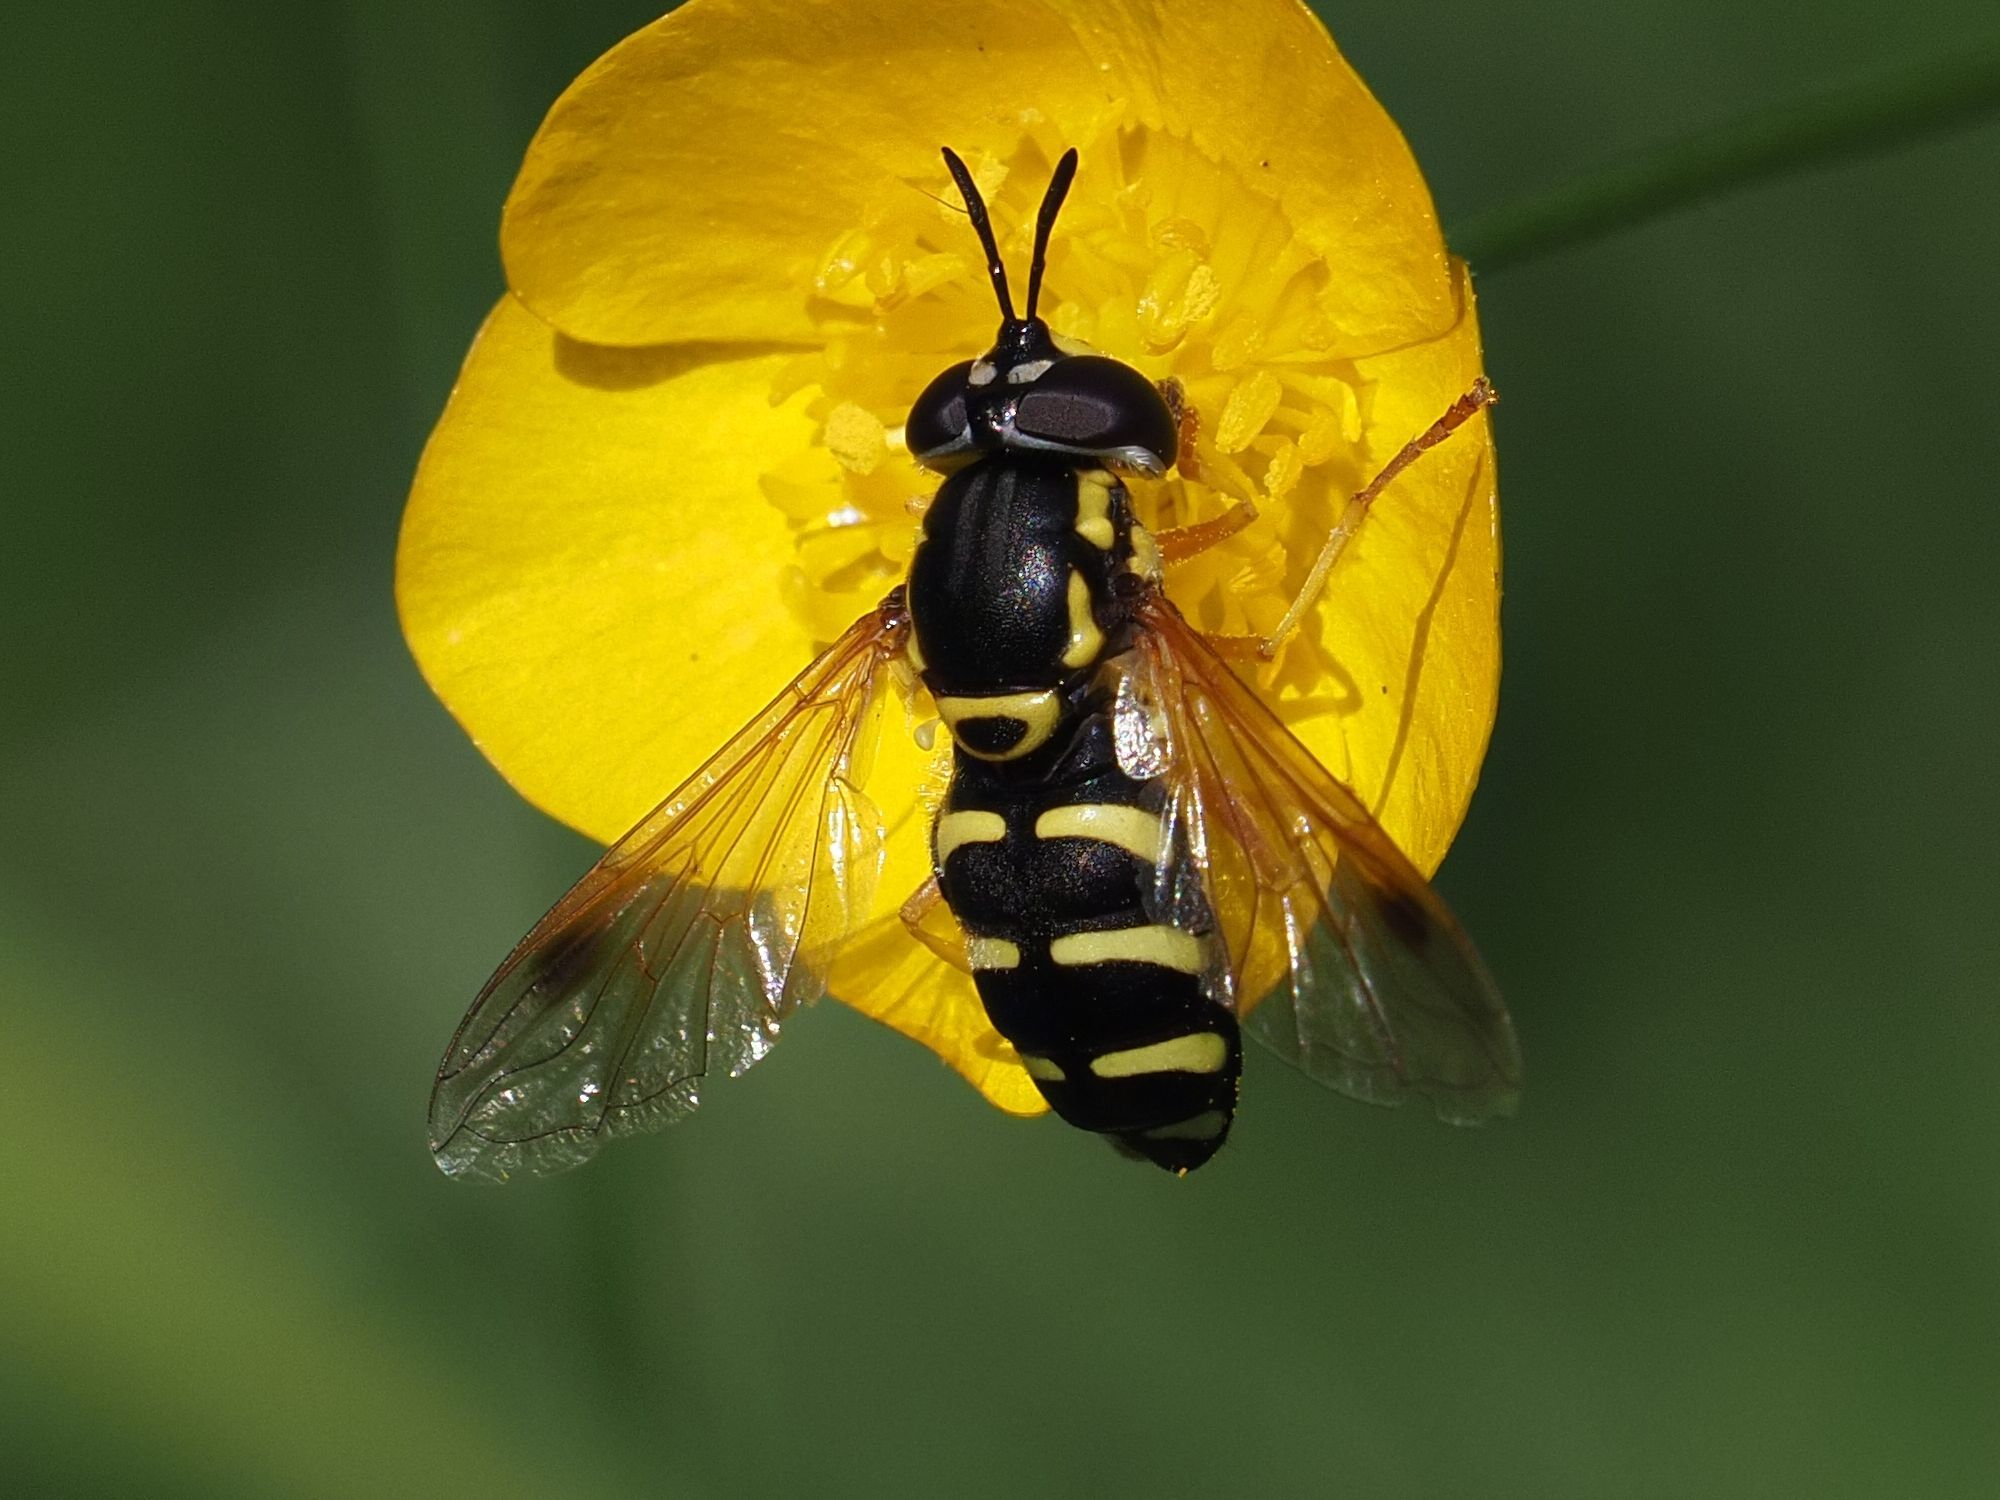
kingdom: Animalia
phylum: Arthropoda
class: Insecta
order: Diptera
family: Syrphidae
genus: Chrysotoxum
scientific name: Chrysotoxum festivum
